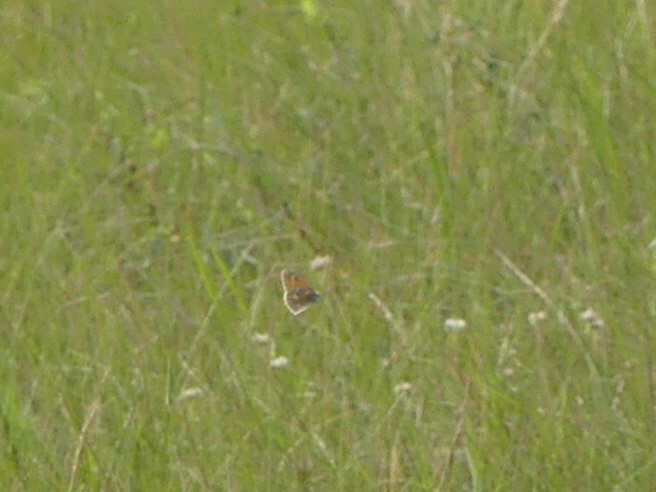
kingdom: Animalia
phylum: Arthropoda
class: Insecta
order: Lepidoptera
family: Nymphalidae
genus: Coenonympha
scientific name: Coenonympha california
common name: Common ringlet
